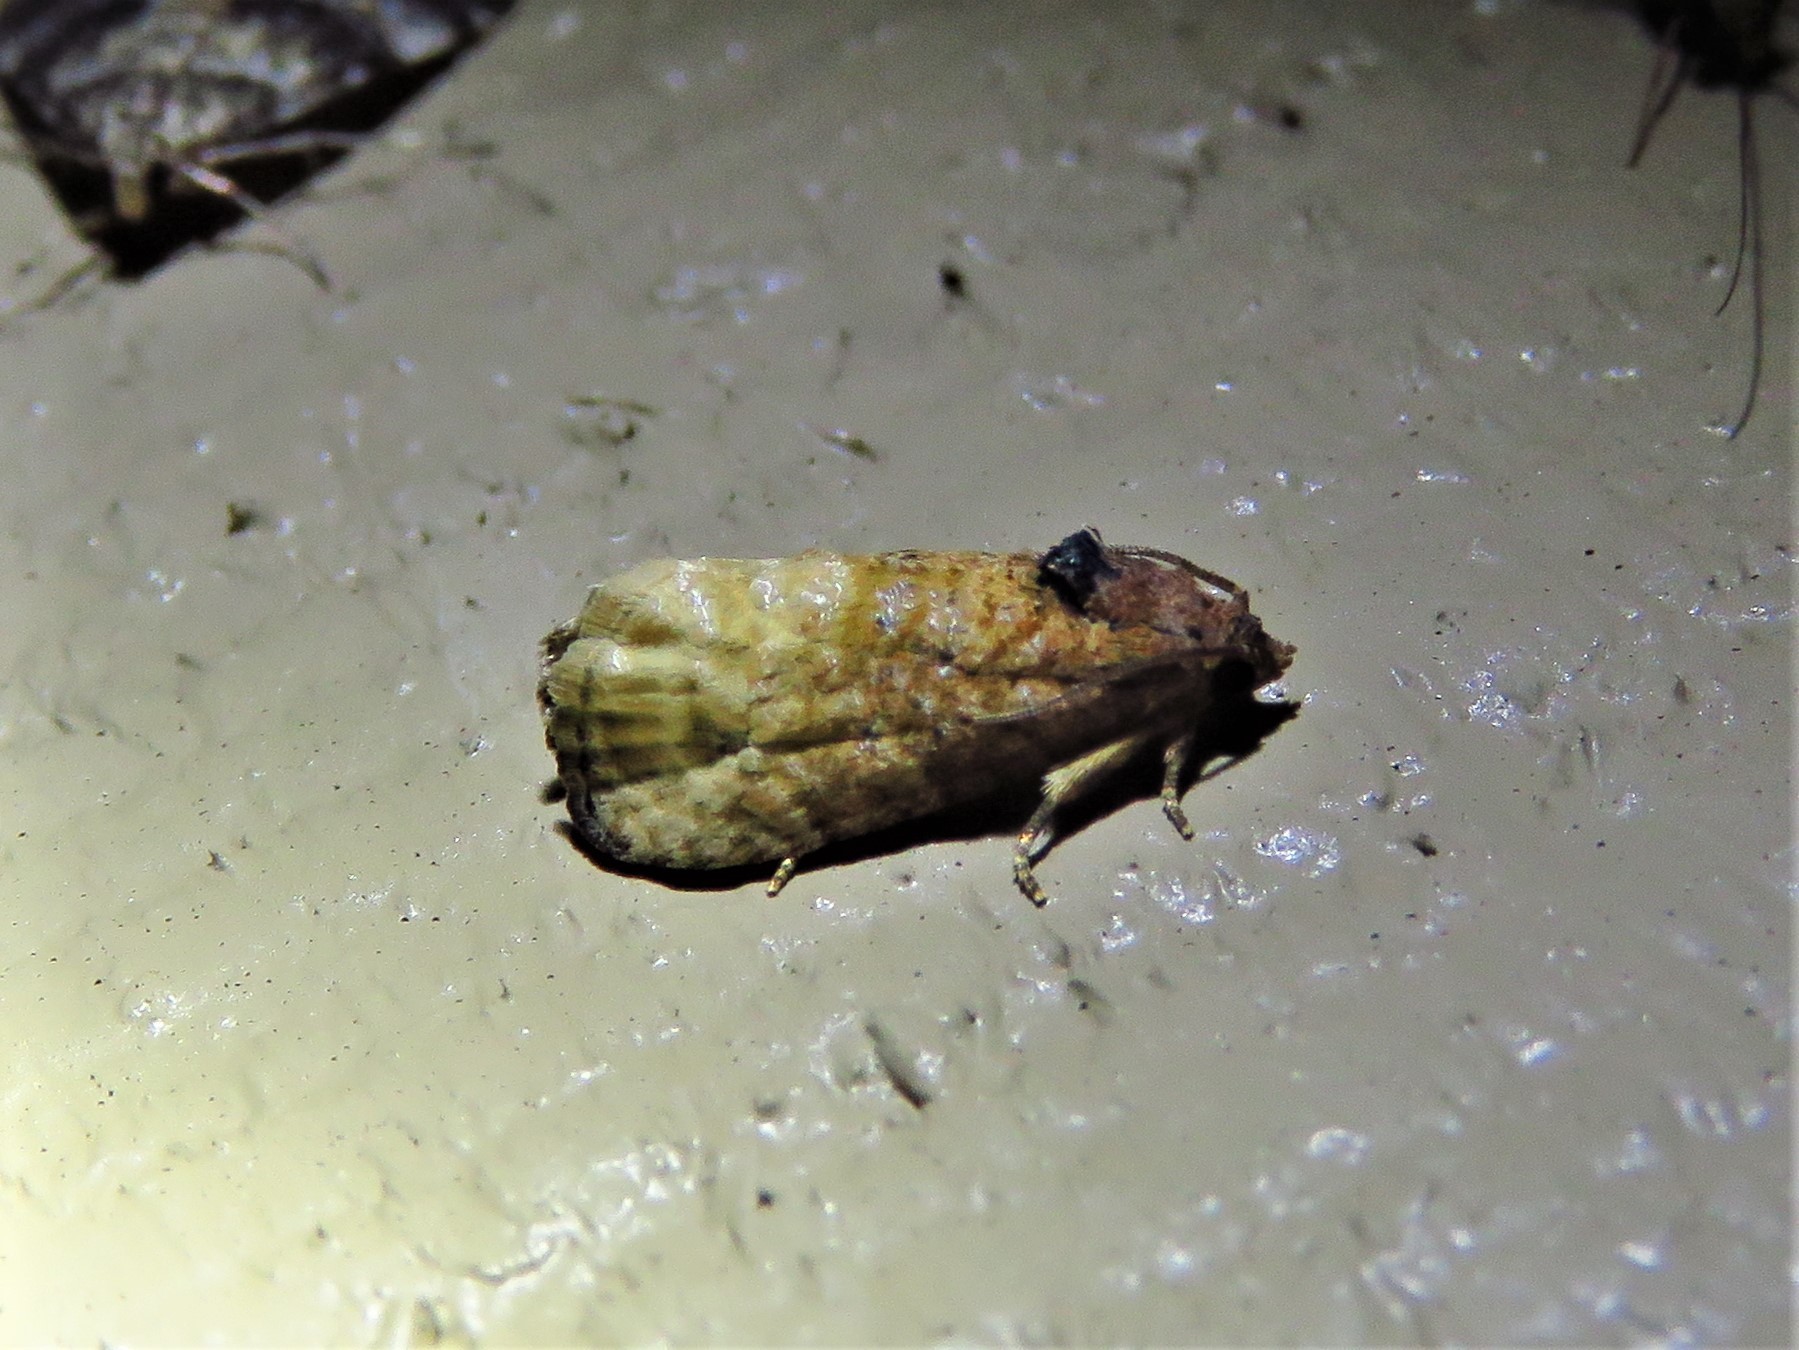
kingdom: Animalia
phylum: Arthropoda
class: Insecta
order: Lepidoptera
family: Tortricidae
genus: Ecdytolopha
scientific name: Ecdytolopha mana
